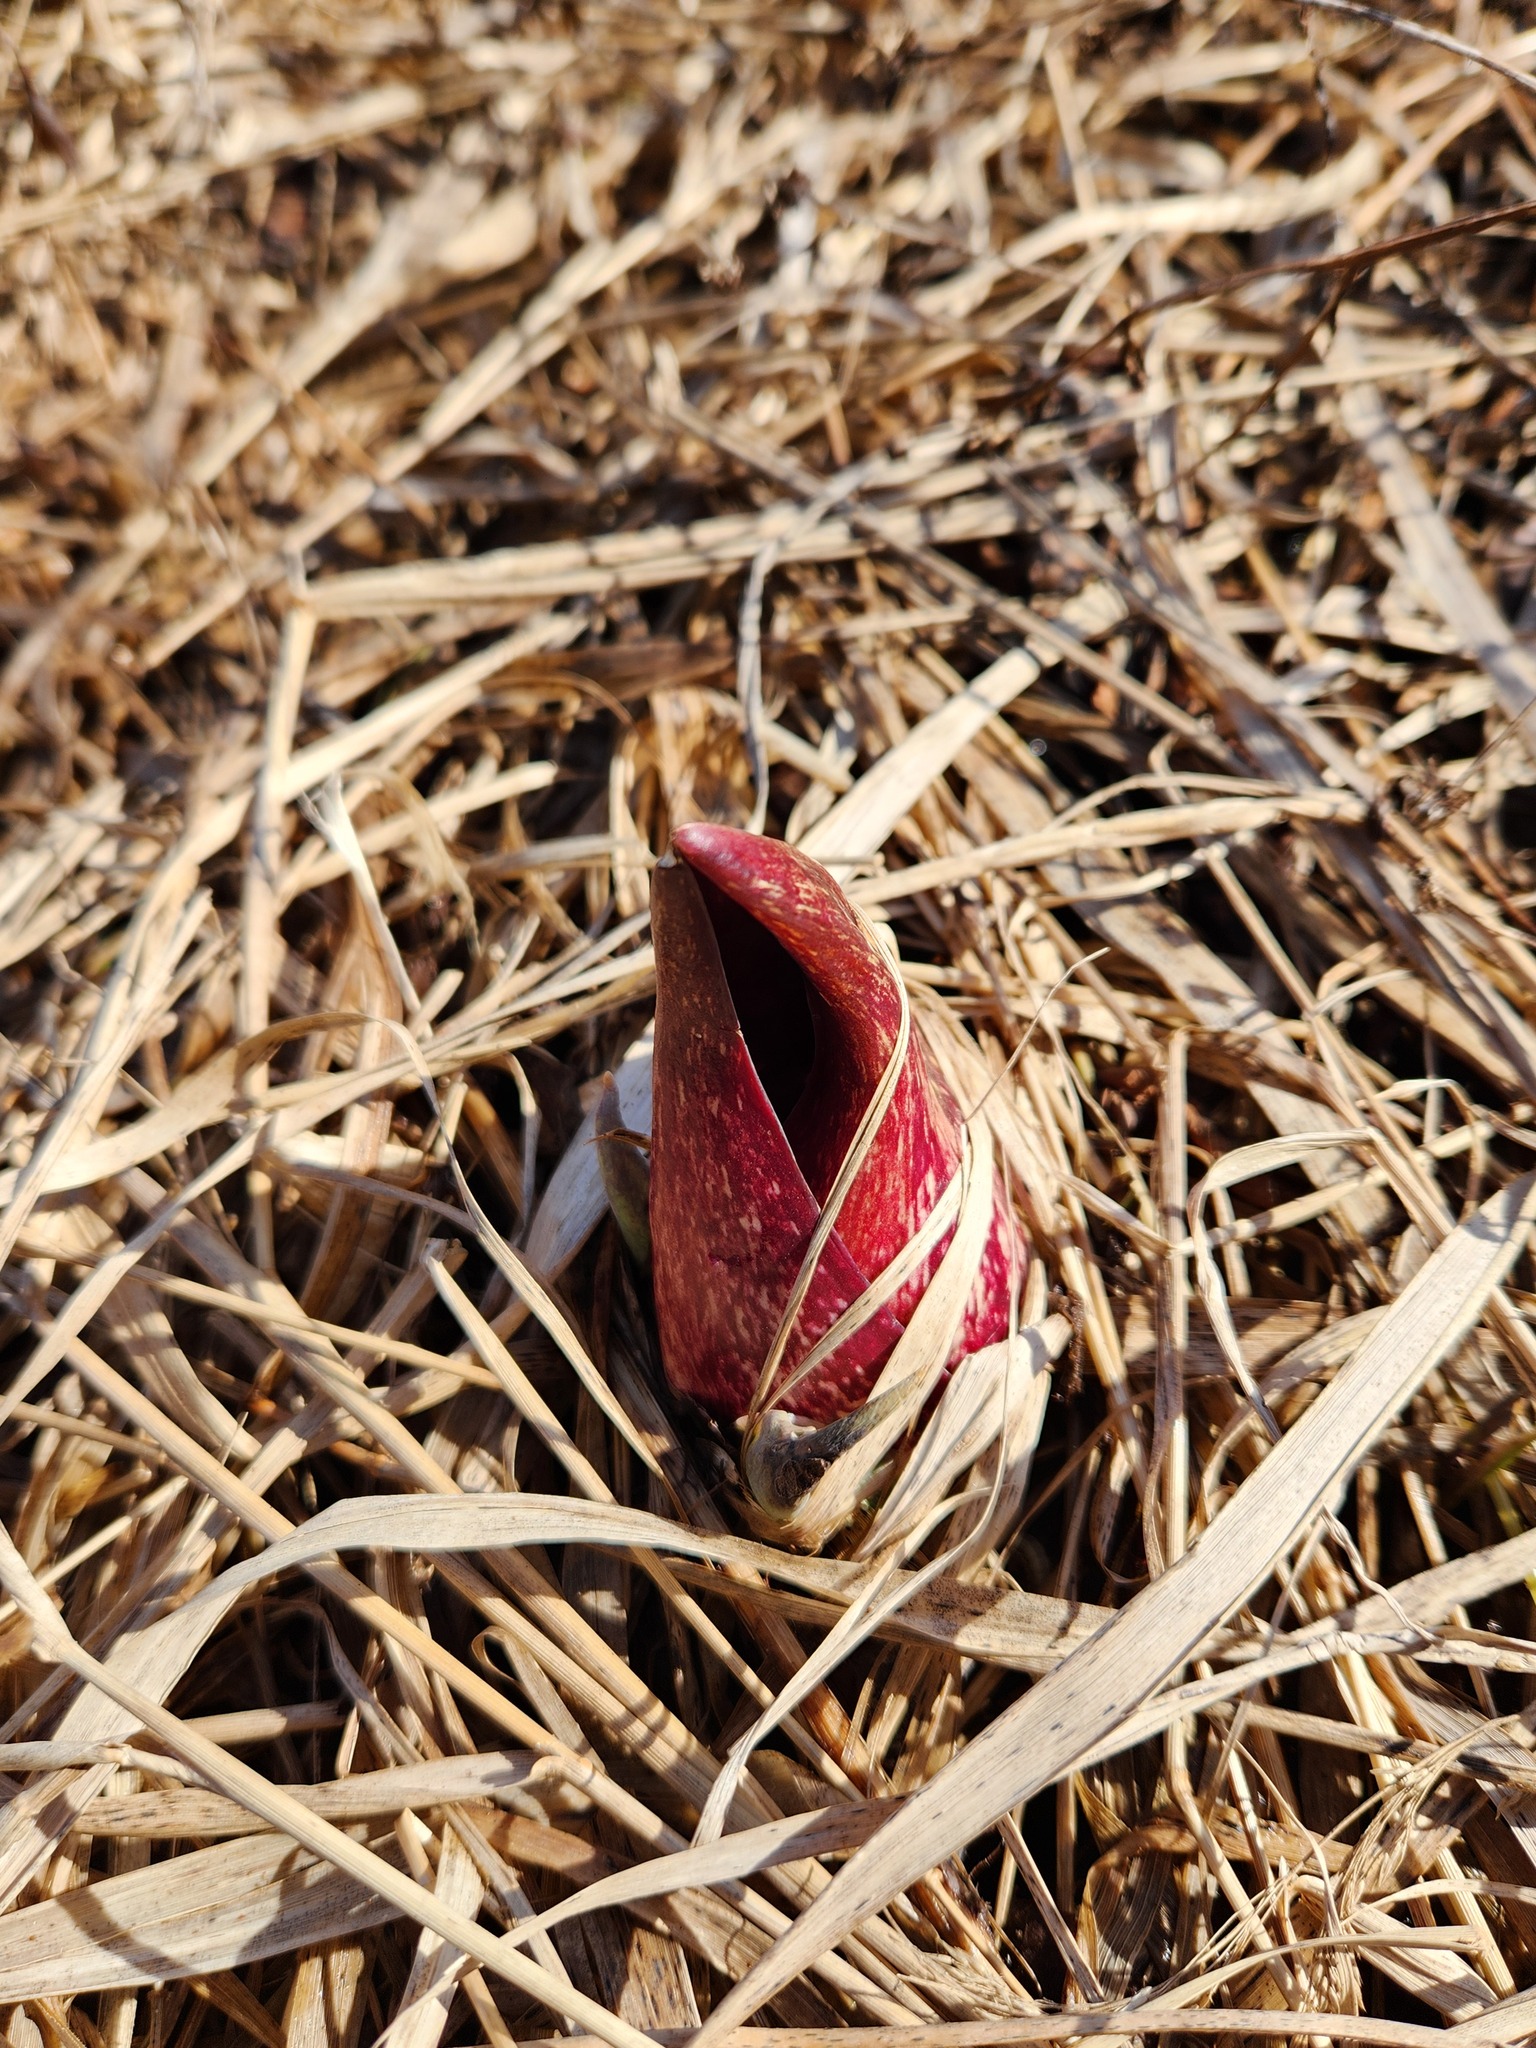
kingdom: Plantae
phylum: Tracheophyta
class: Liliopsida
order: Alismatales
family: Araceae
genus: Symplocarpus
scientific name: Symplocarpus foetidus
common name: Eastern skunk cabbage
